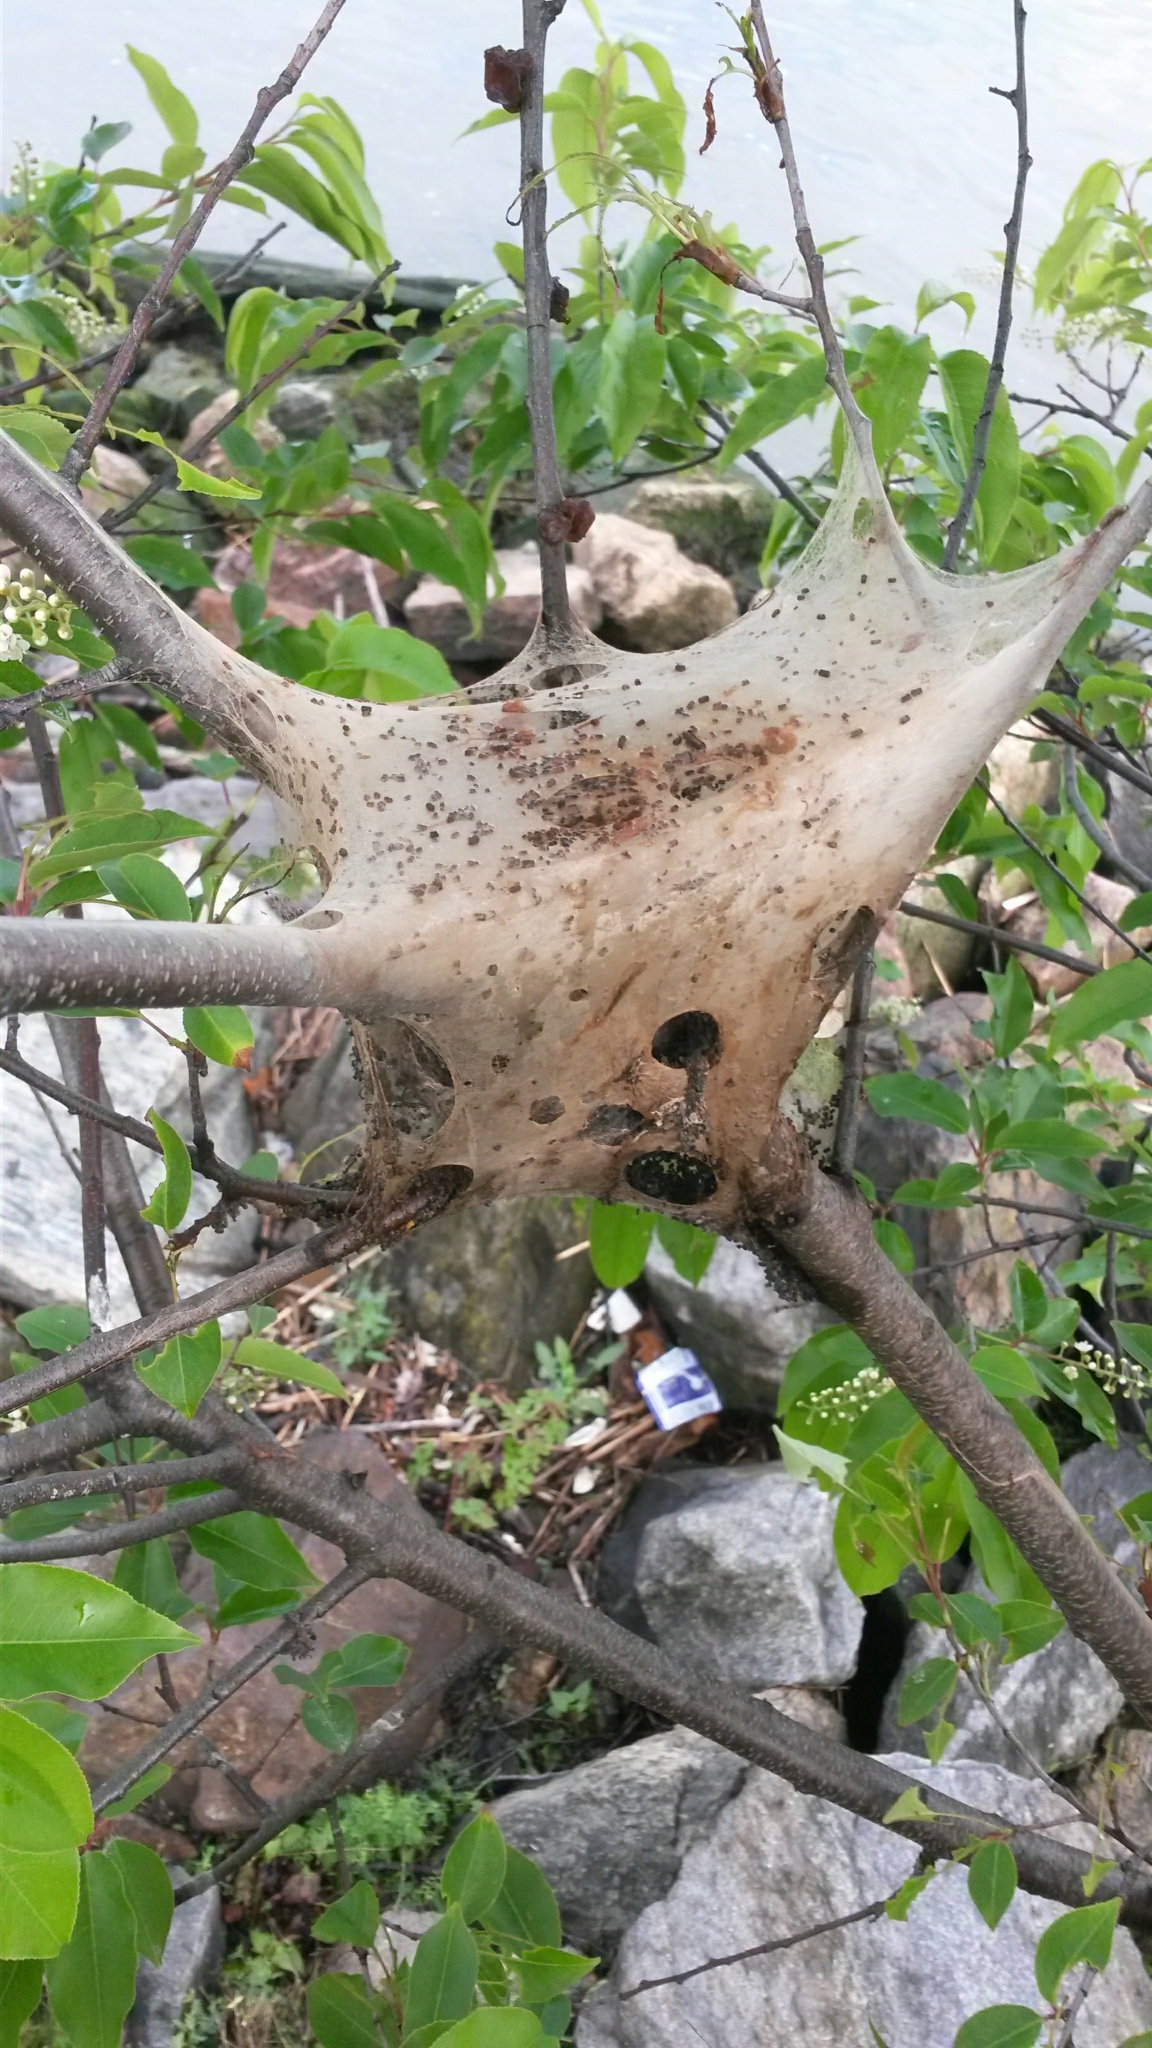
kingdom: Animalia
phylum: Arthropoda
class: Insecta
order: Lepidoptera
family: Lasiocampidae
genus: Malacosoma
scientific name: Malacosoma americana
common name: Eastern tent caterpillar moth
